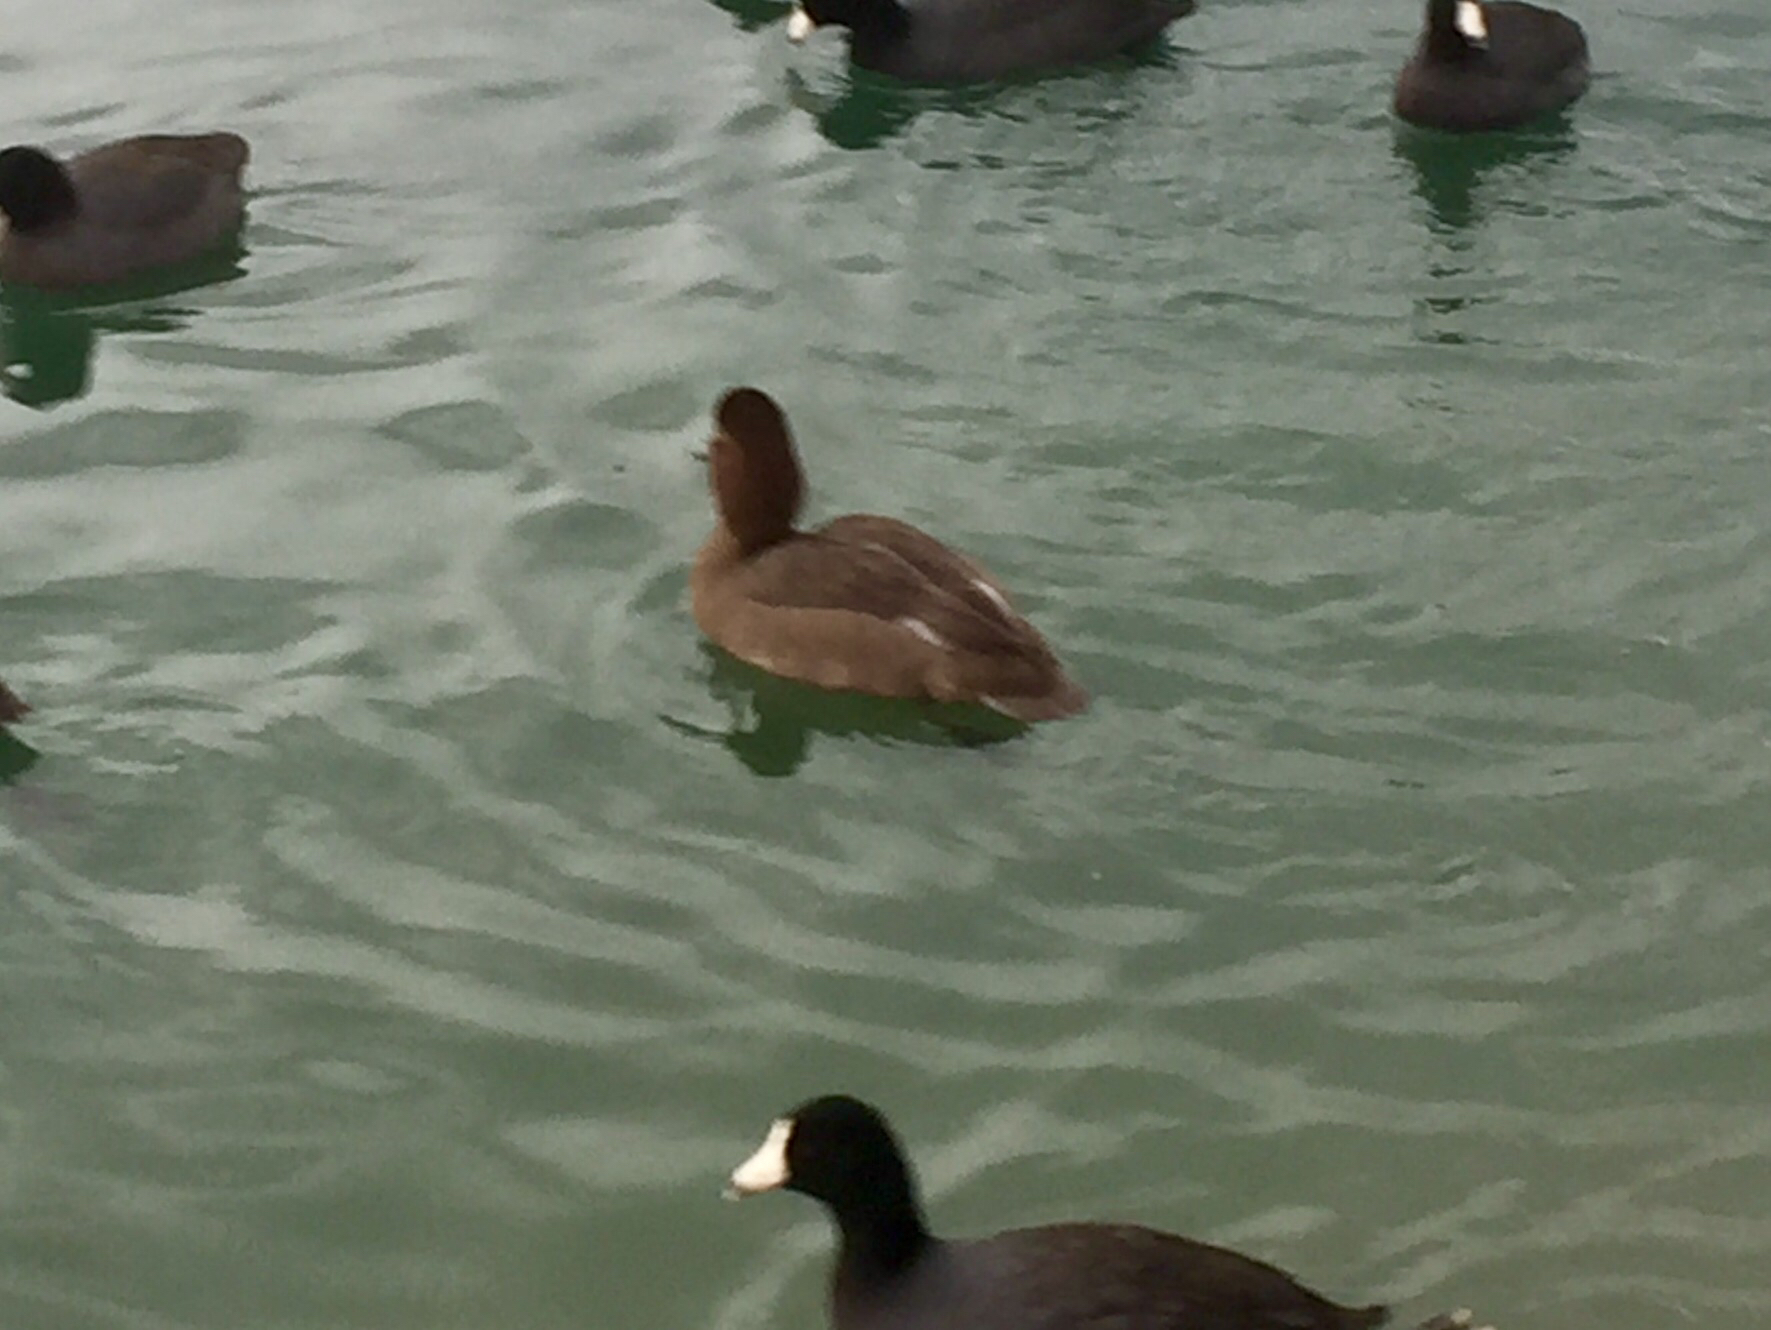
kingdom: Animalia
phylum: Chordata
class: Aves
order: Anseriformes
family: Anatidae
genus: Aythya
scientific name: Aythya americana
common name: Redhead
